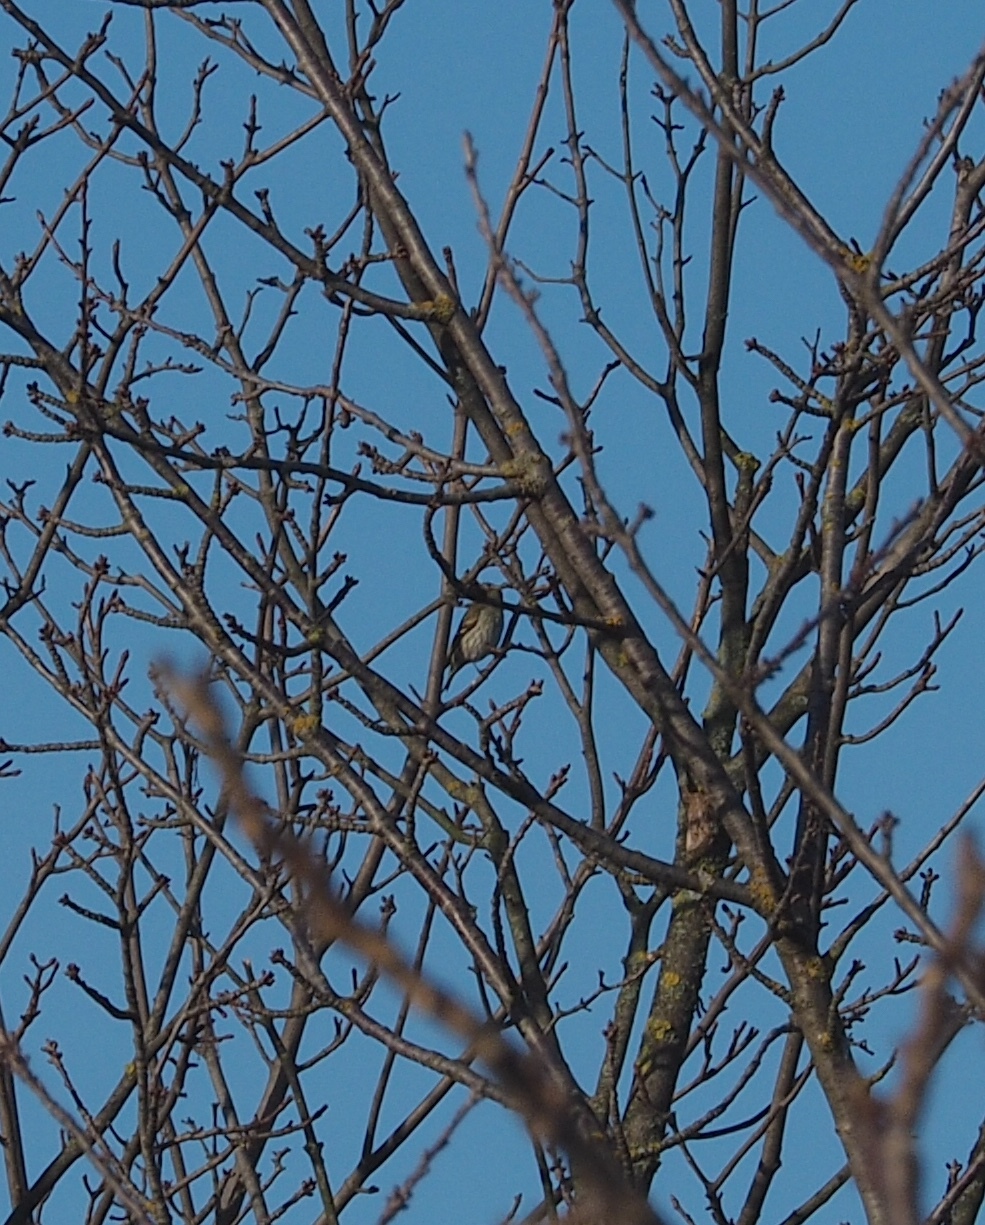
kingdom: Animalia
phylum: Chordata
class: Aves
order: Passeriformes
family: Fringillidae
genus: Spinus
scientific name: Spinus spinus
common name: Eurasian siskin
